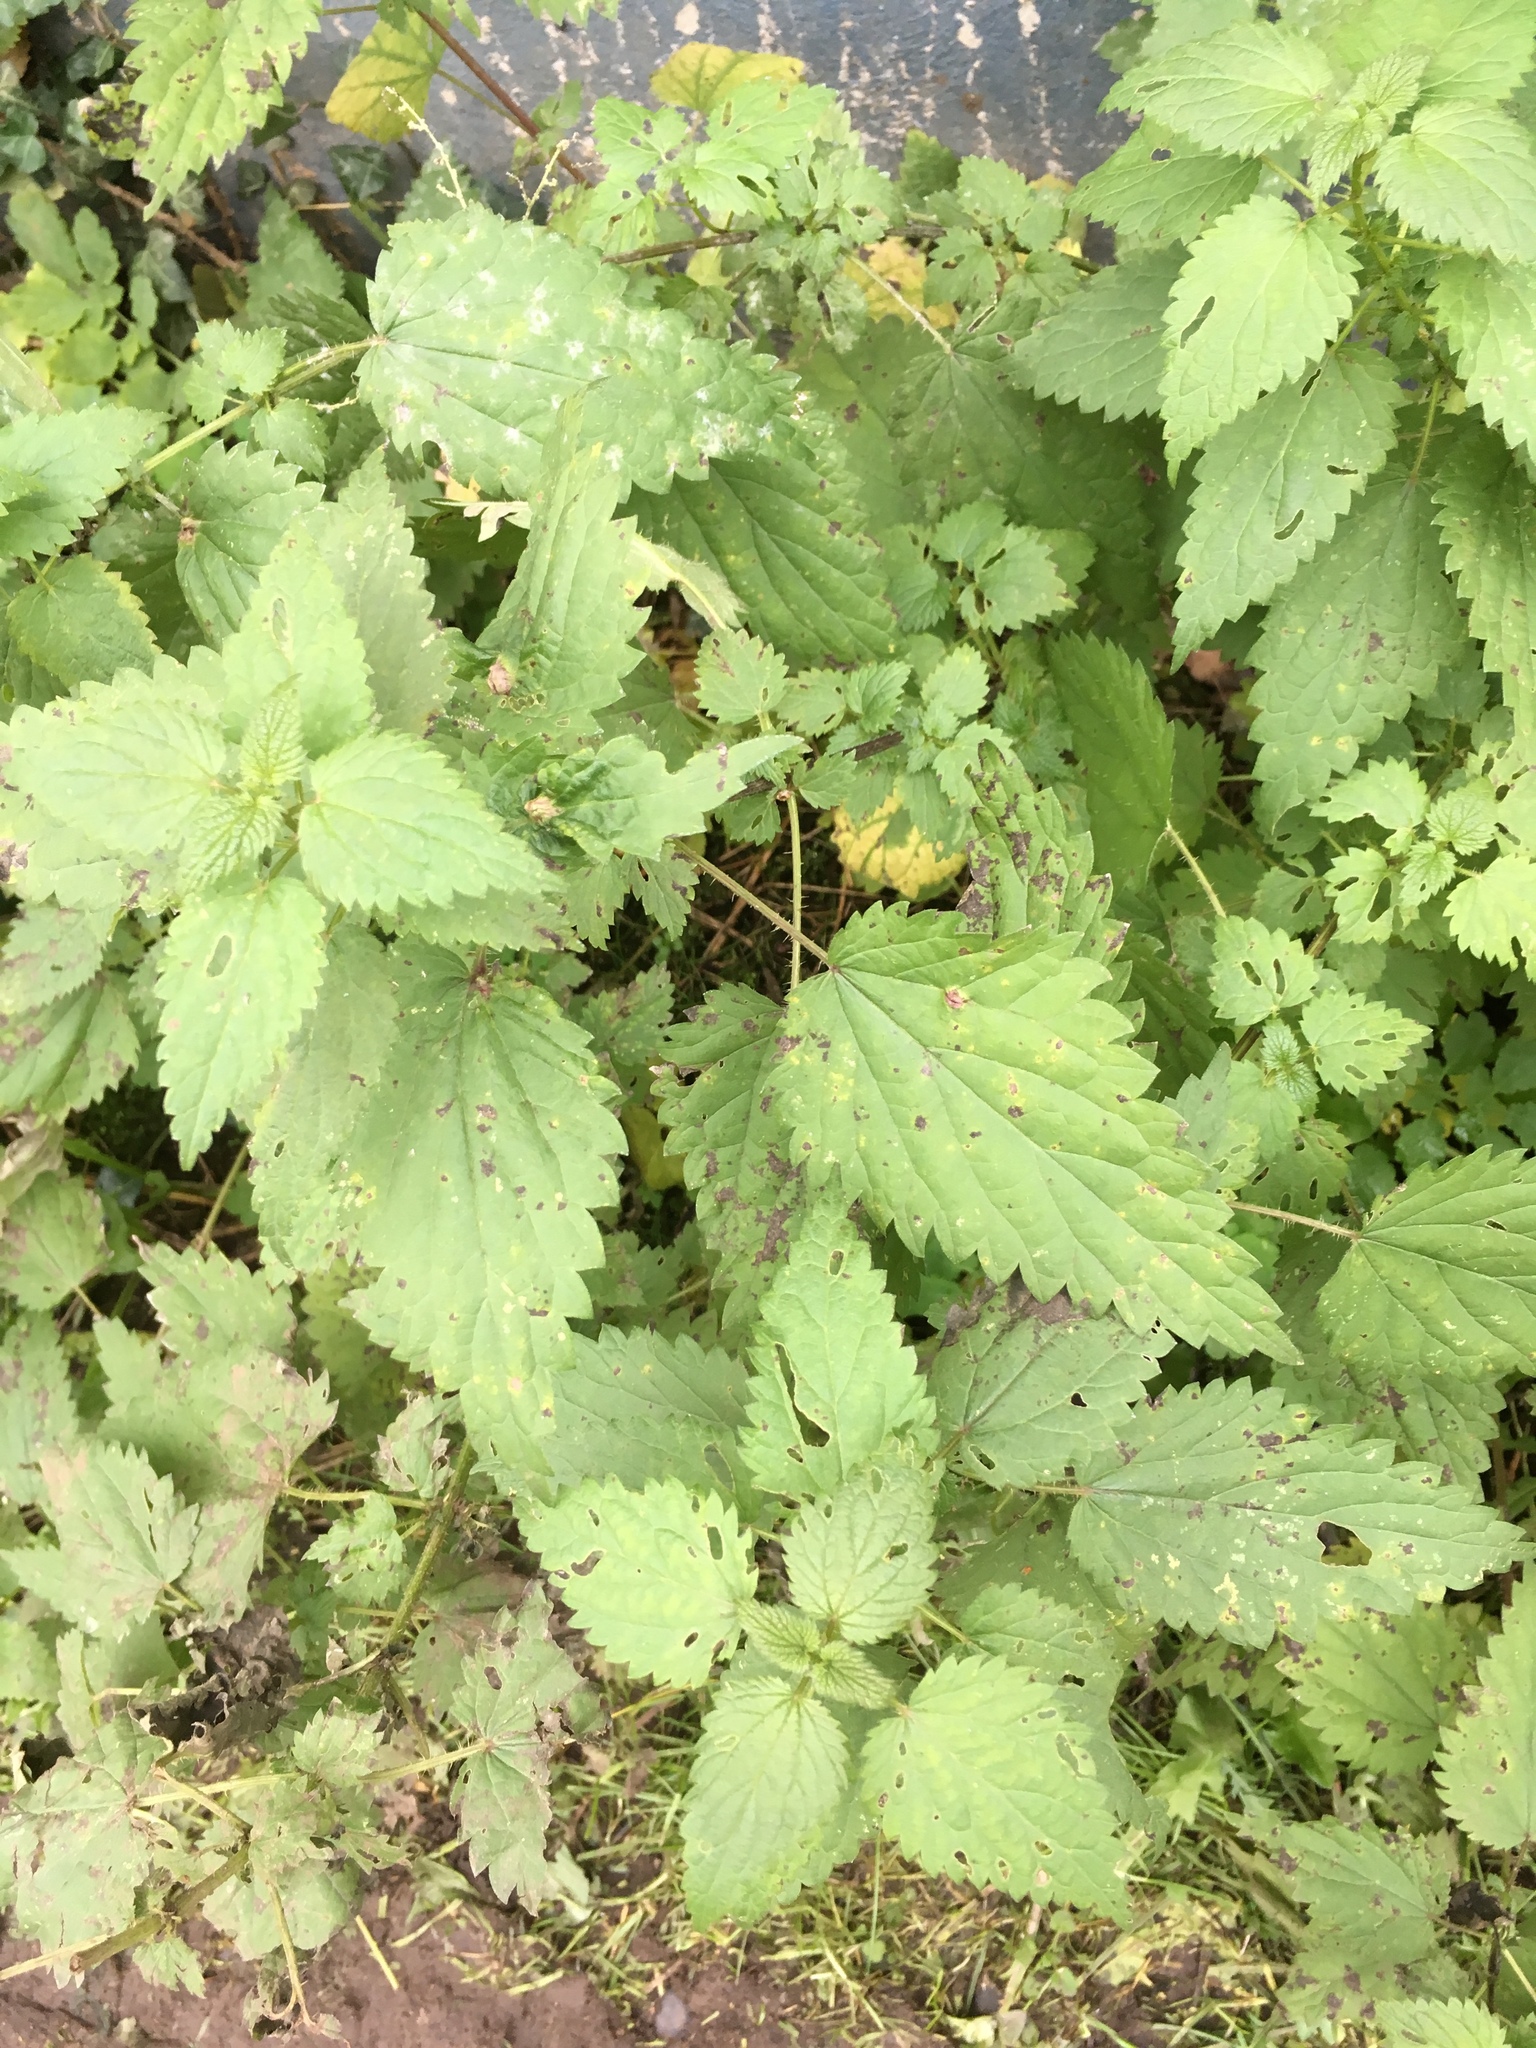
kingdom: Plantae
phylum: Tracheophyta
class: Magnoliopsida
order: Rosales
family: Urticaceae
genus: Urtica
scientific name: Urtica dioica
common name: Common nettle
